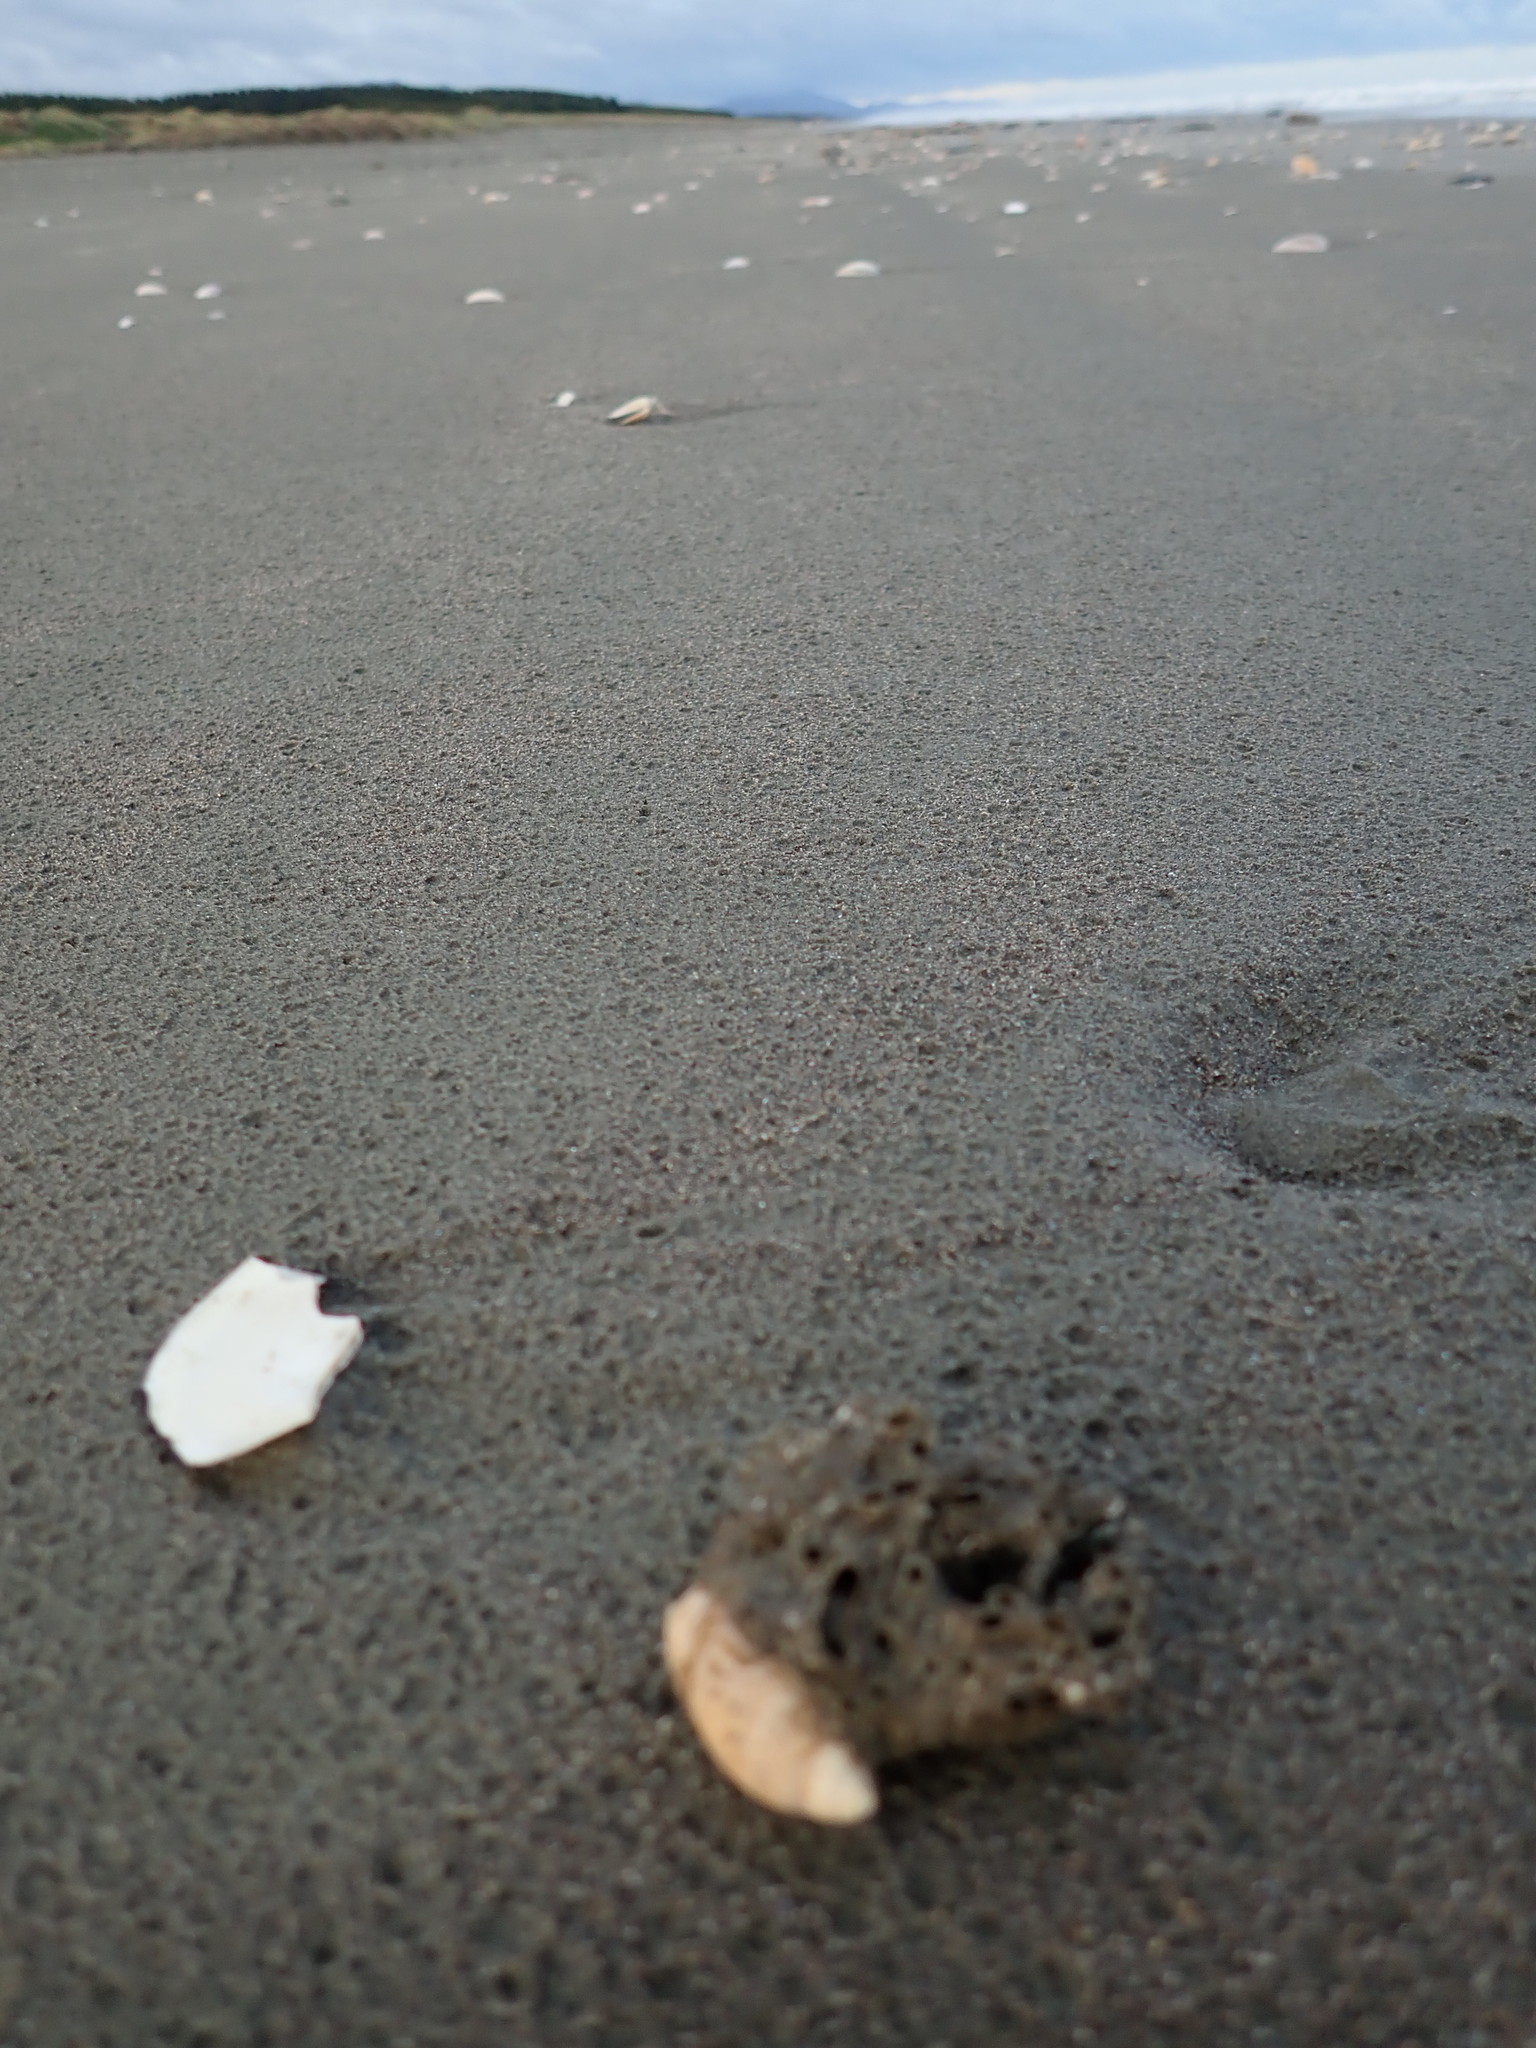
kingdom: Animalia
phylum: Mollusca
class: Gastropoda
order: Neogastropoda
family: Ancillariidae
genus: Amalda
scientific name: Amalda australis
